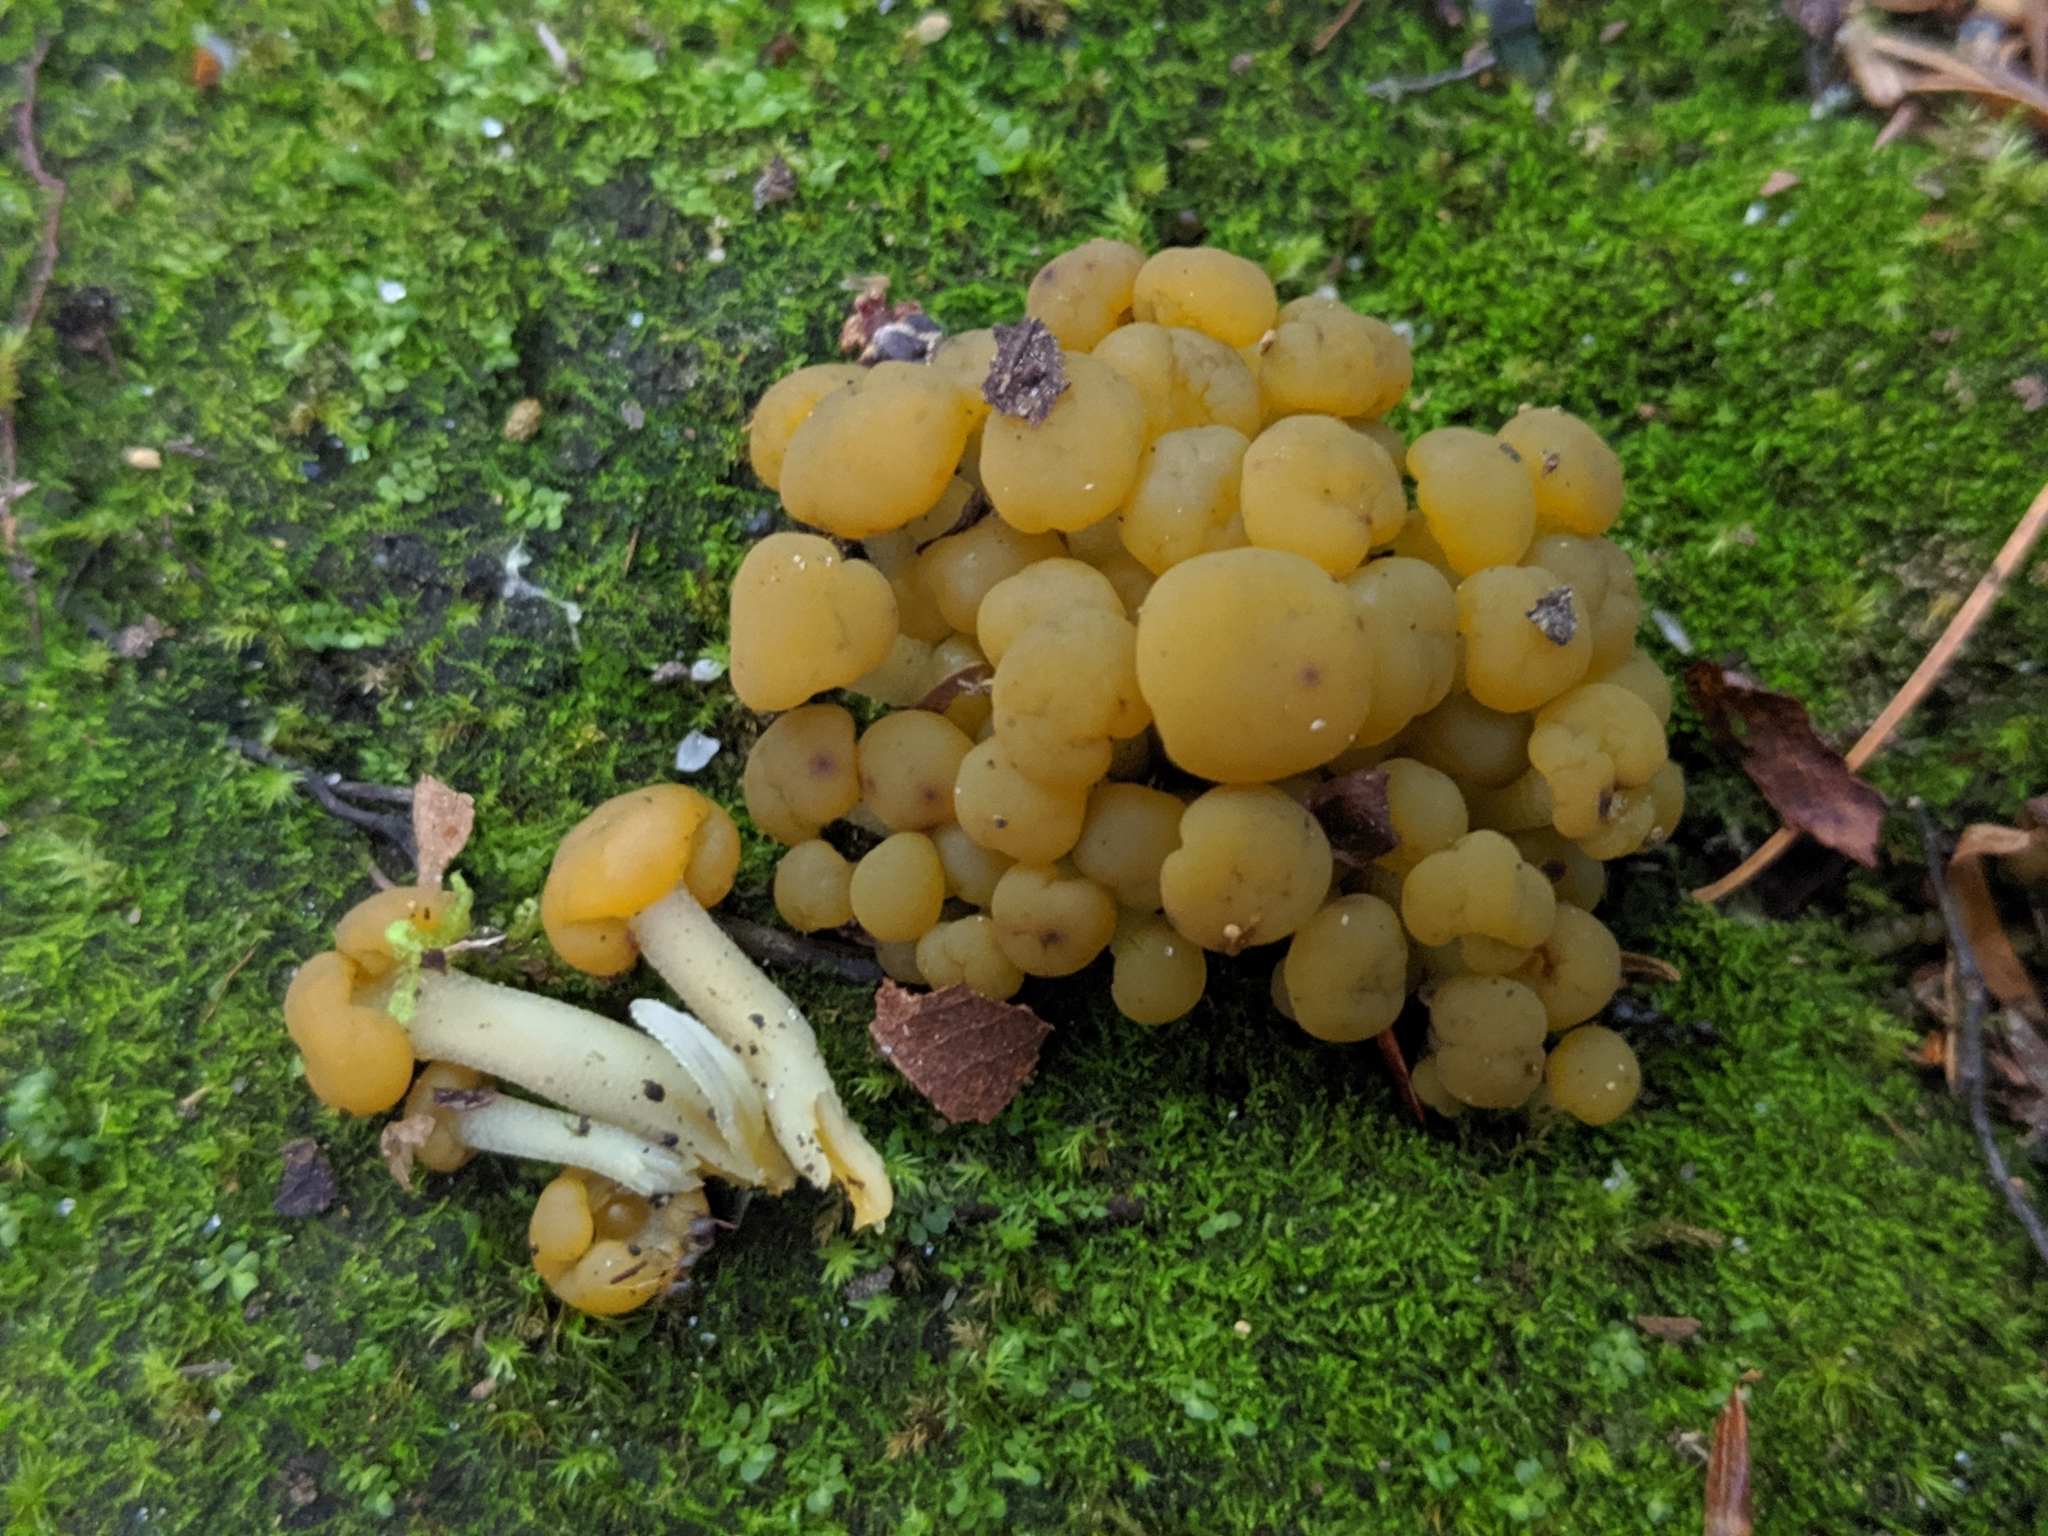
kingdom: Fungi
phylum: Ascomycota
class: Leotiomycetes
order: Leotiales
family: Leotiaceae
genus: Leotia
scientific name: Leotia lubrica
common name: Jellybaby
